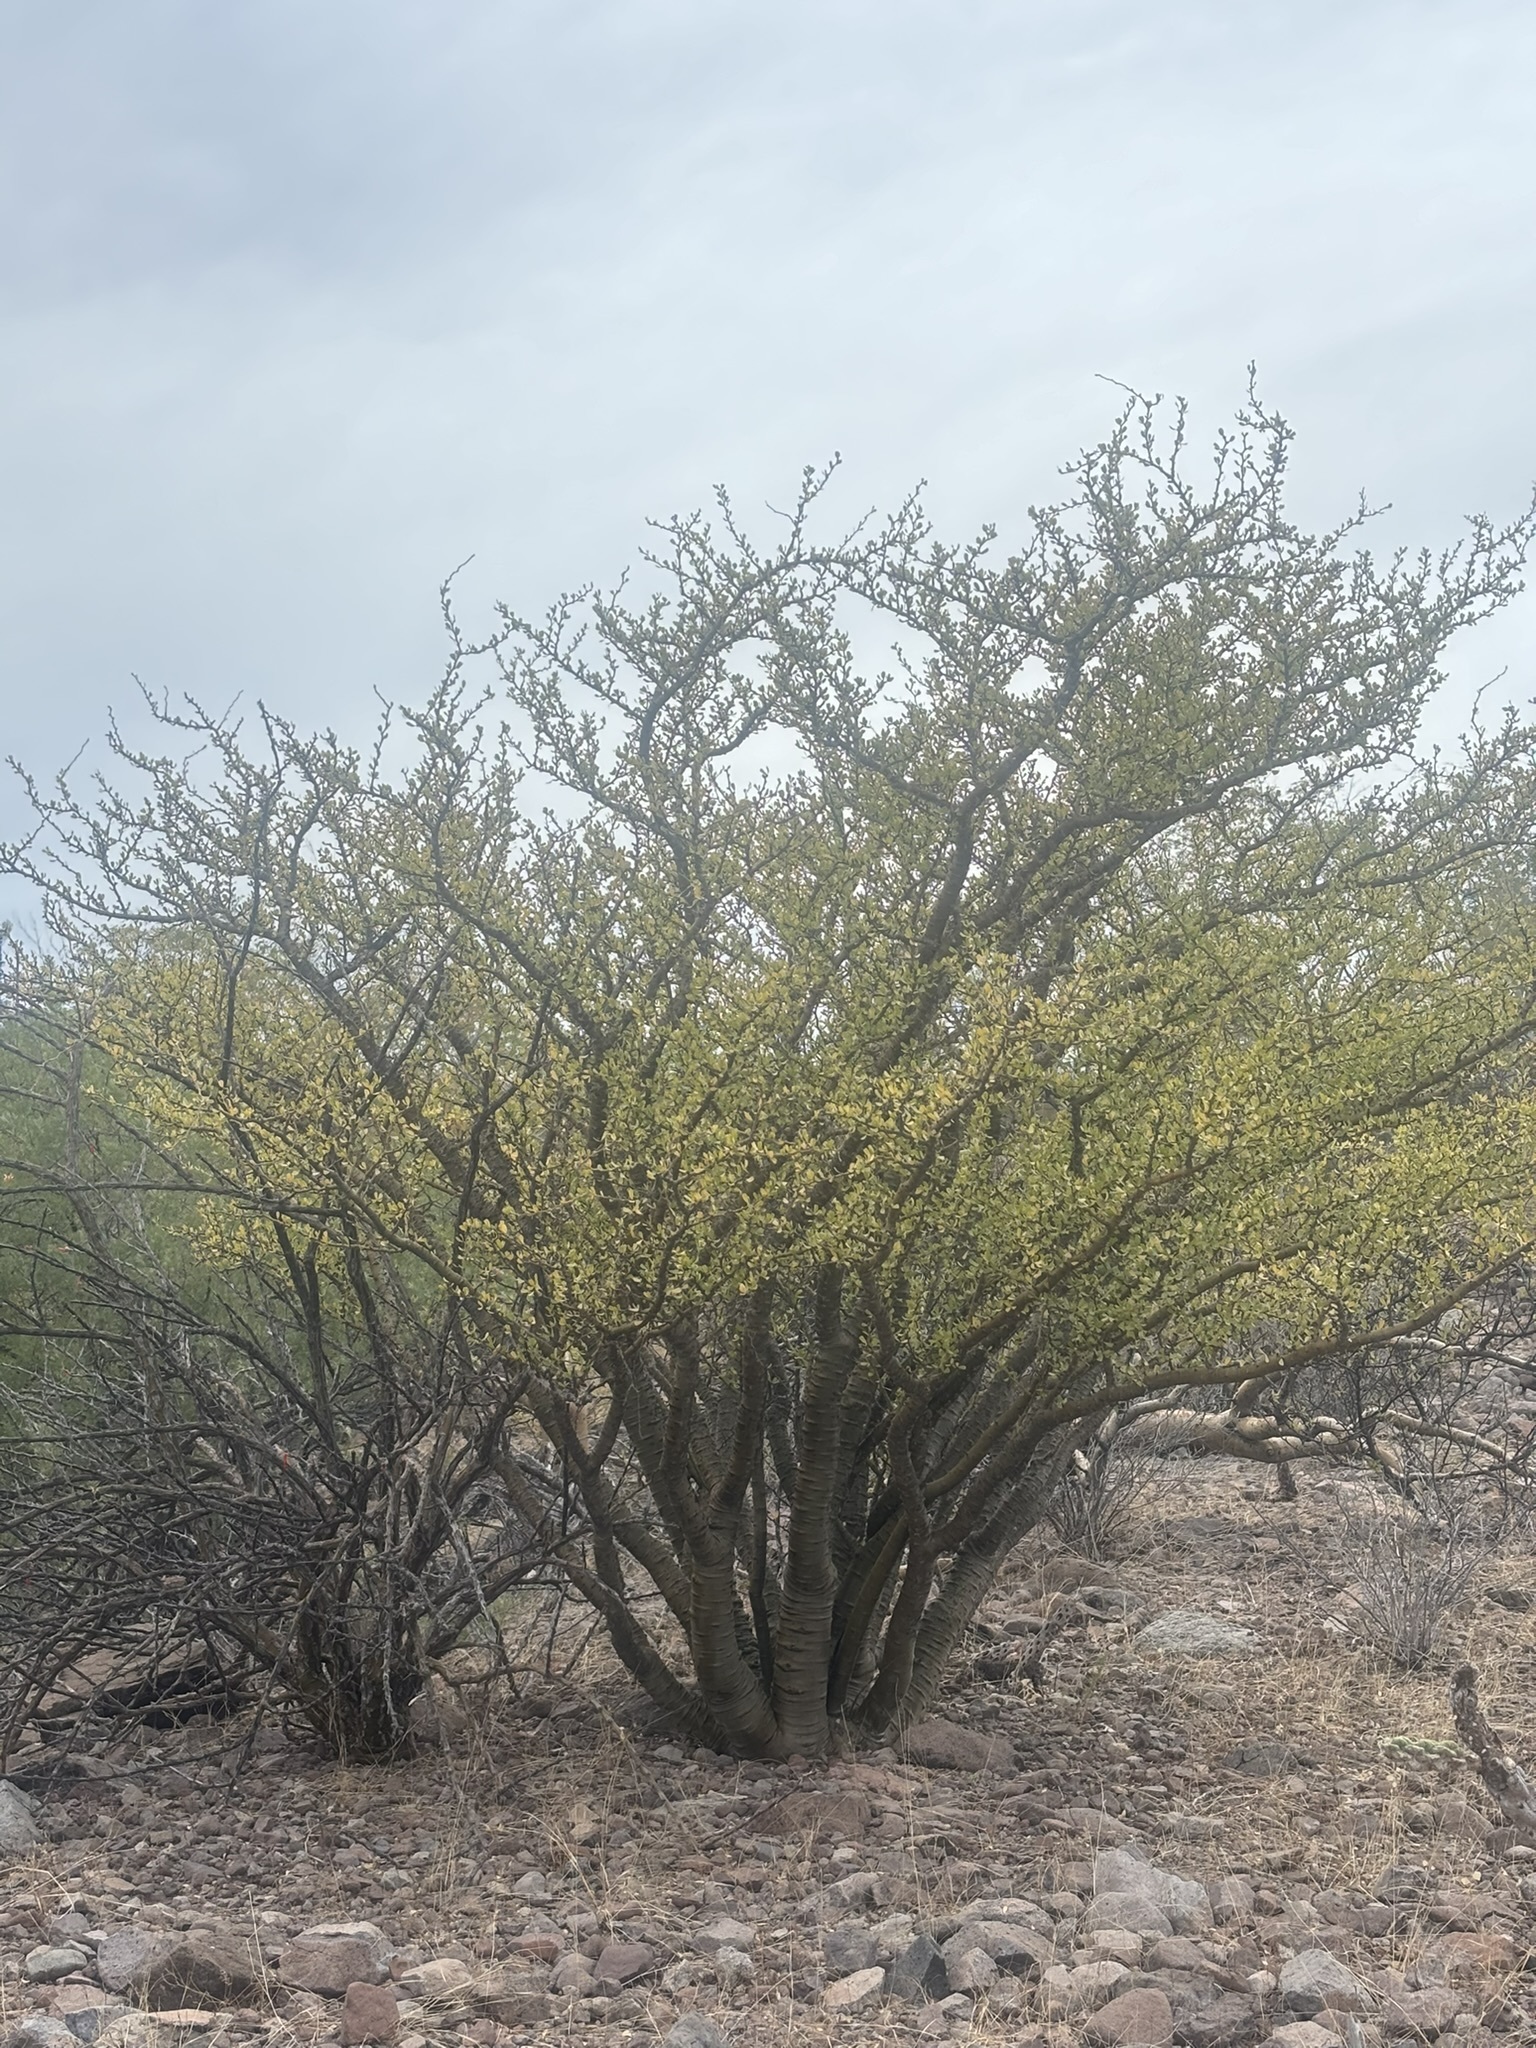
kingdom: Plantae
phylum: Tracheophyta
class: Magnoliopsida
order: Malpighiales
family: Euphorbiaceae
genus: Jatropha
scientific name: Jatropha cuneata
